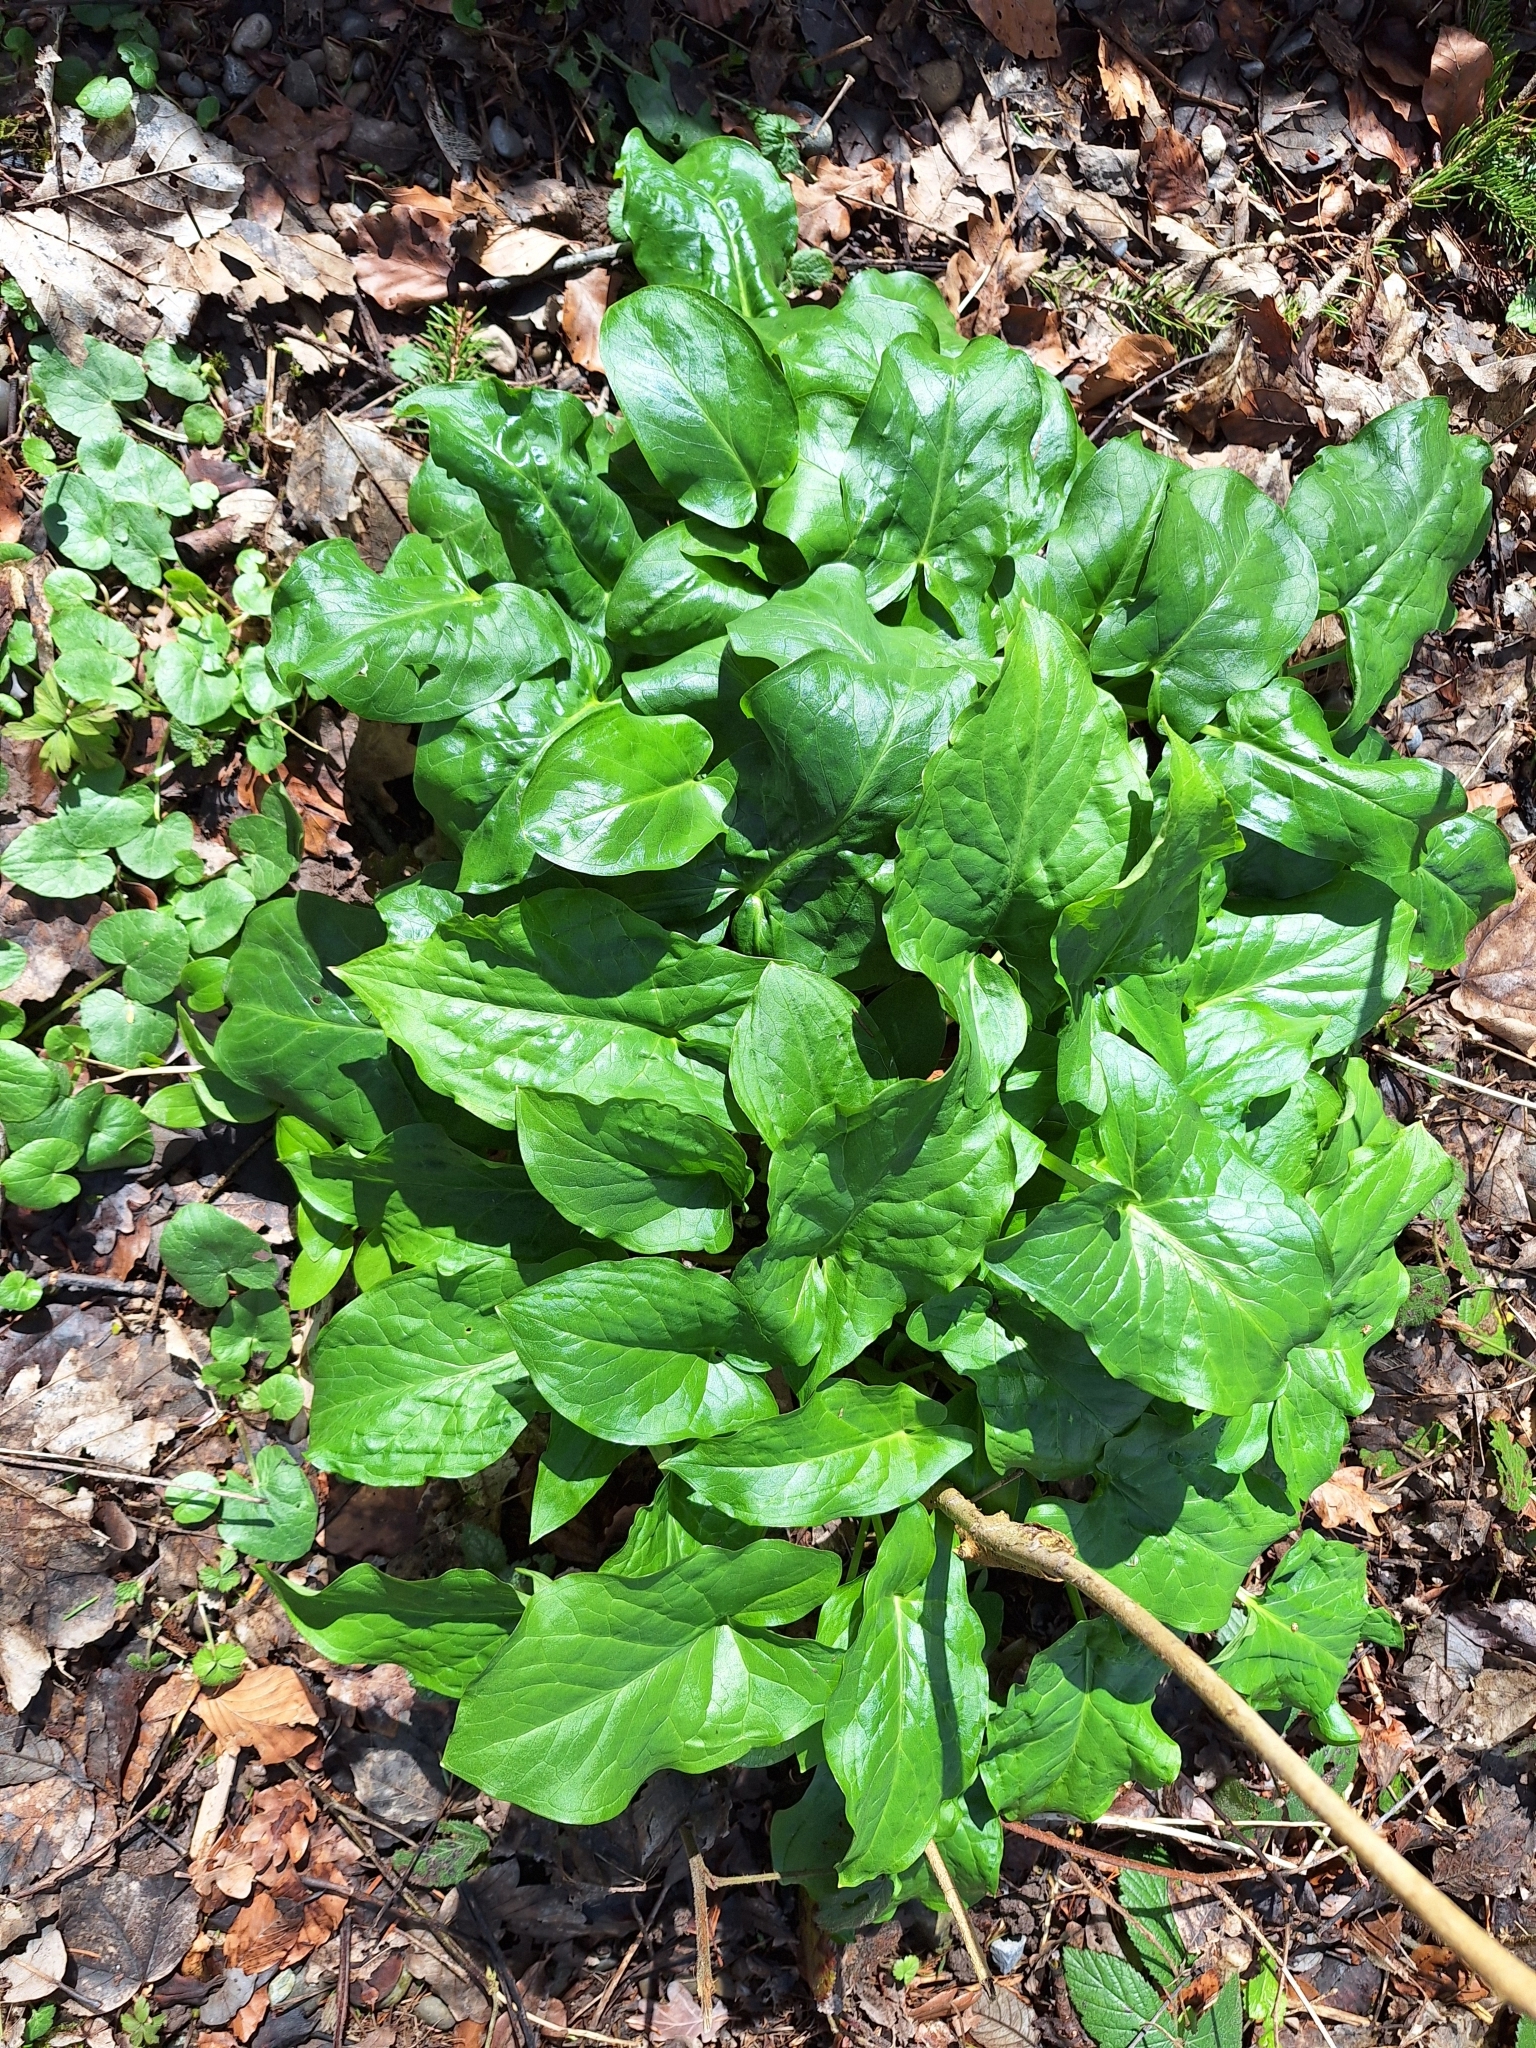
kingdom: Plantae
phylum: Tracheophyta
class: Liliopsida
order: Alismatales
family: Araceae
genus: Arum
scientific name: Arum maculatum
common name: Lords-and-ladies
